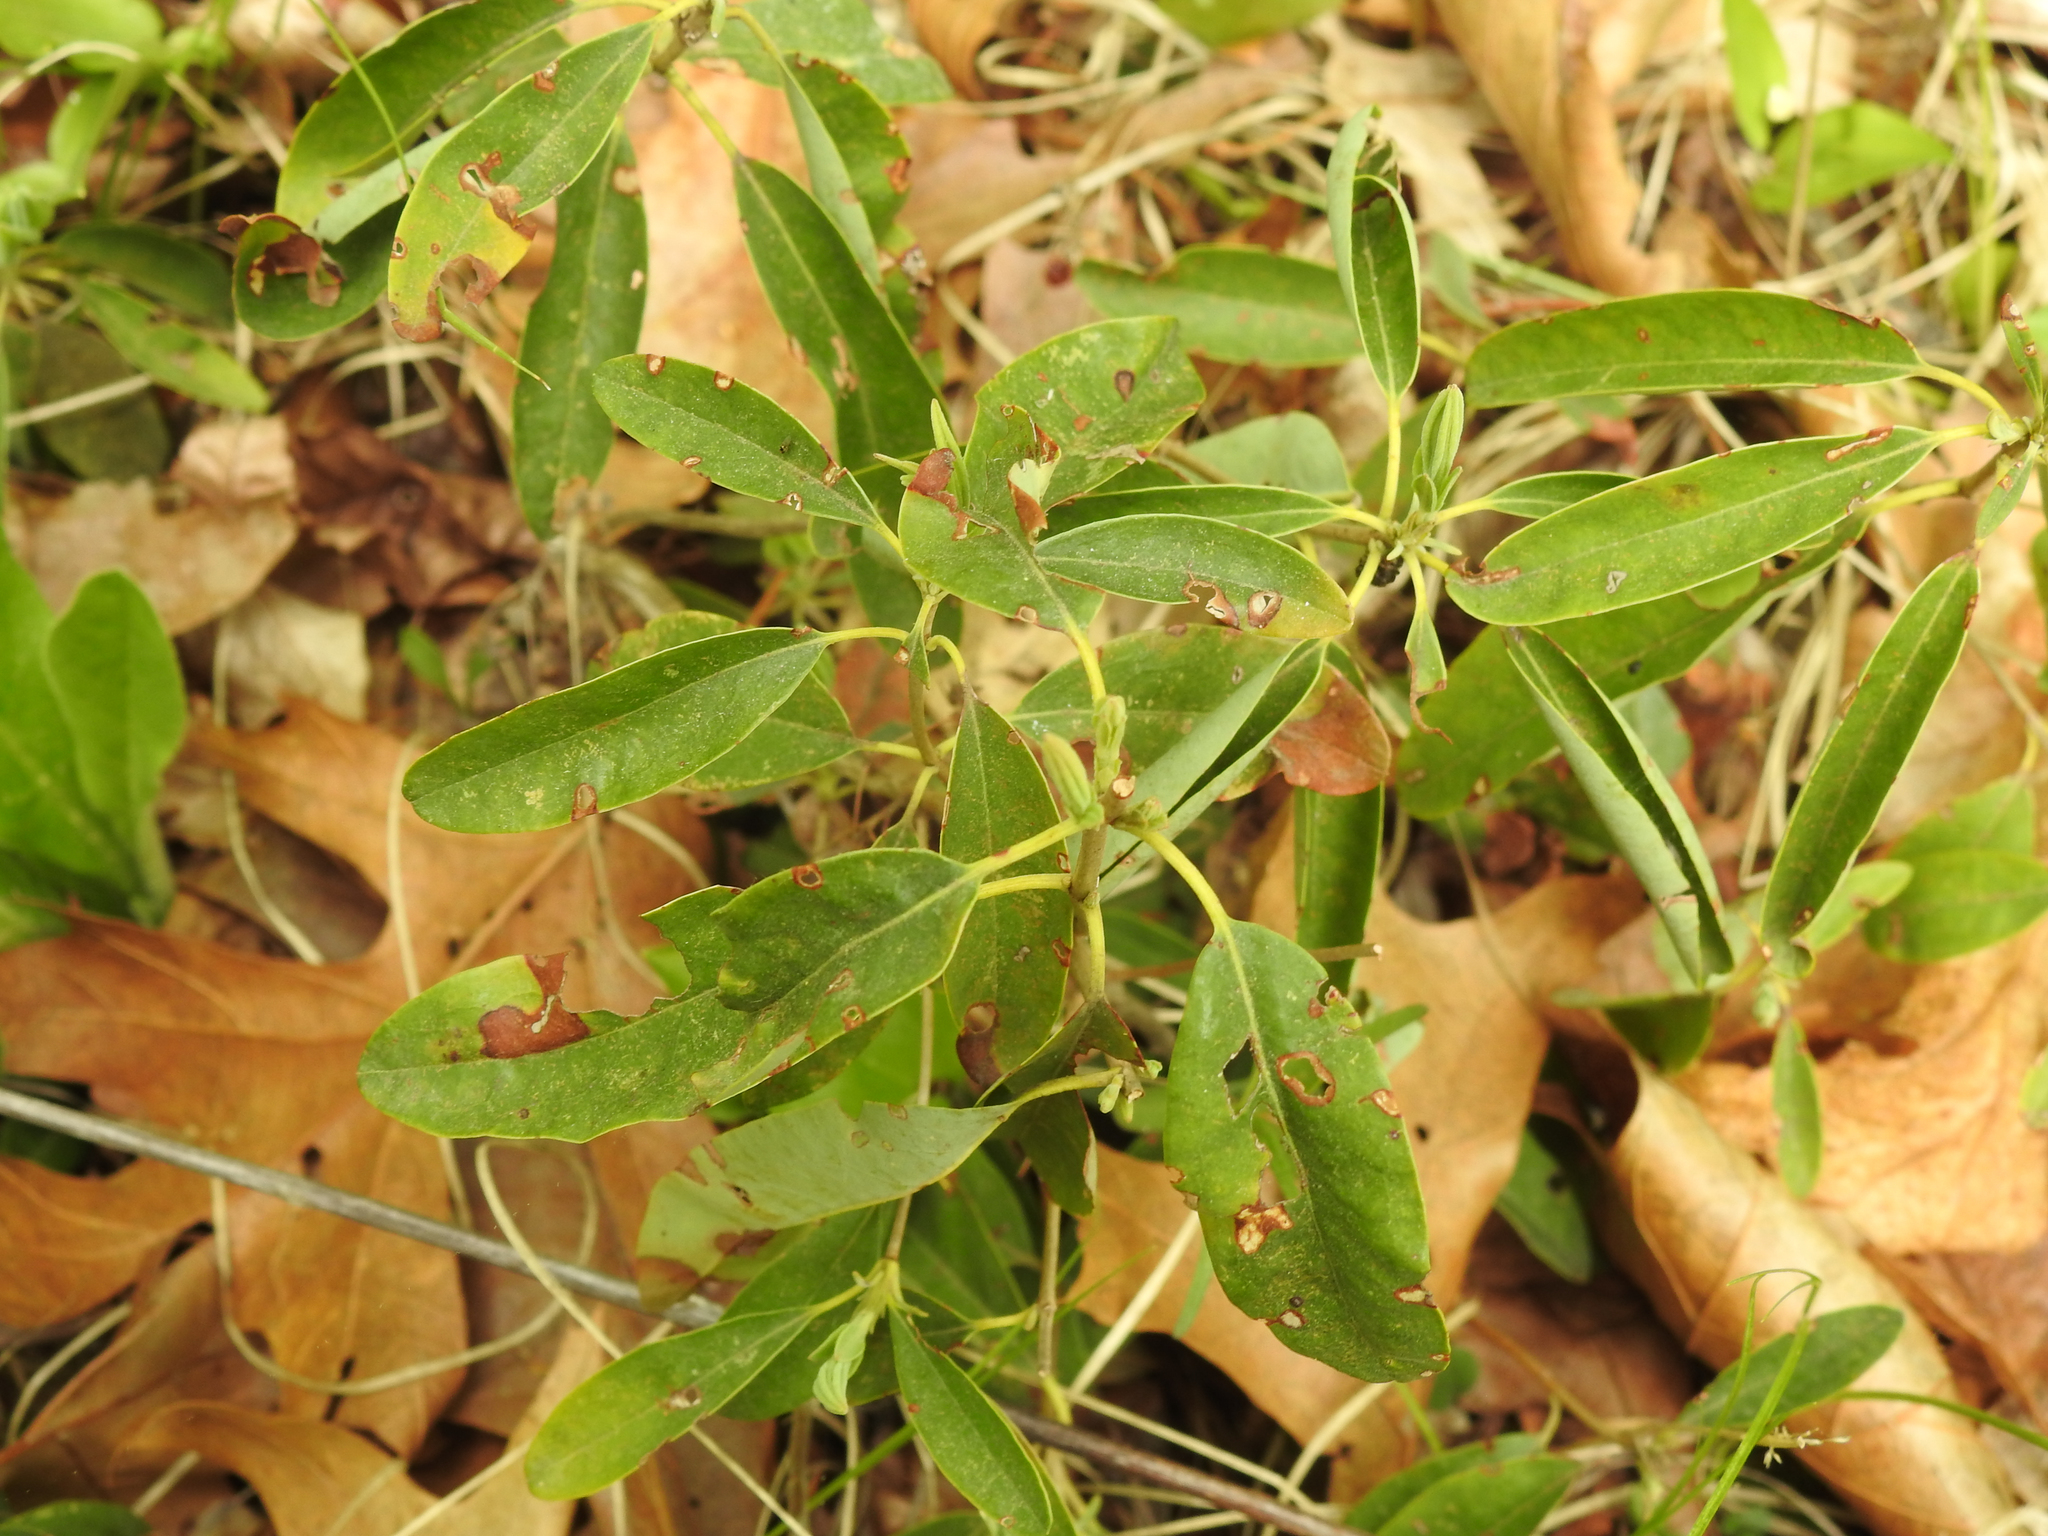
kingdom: Plantae
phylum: Tracheophyta
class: Magnoliopsida
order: Ericales
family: Ericaceae
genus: Kalmia
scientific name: Kalmia angustifolia
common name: Sheep-laurel
